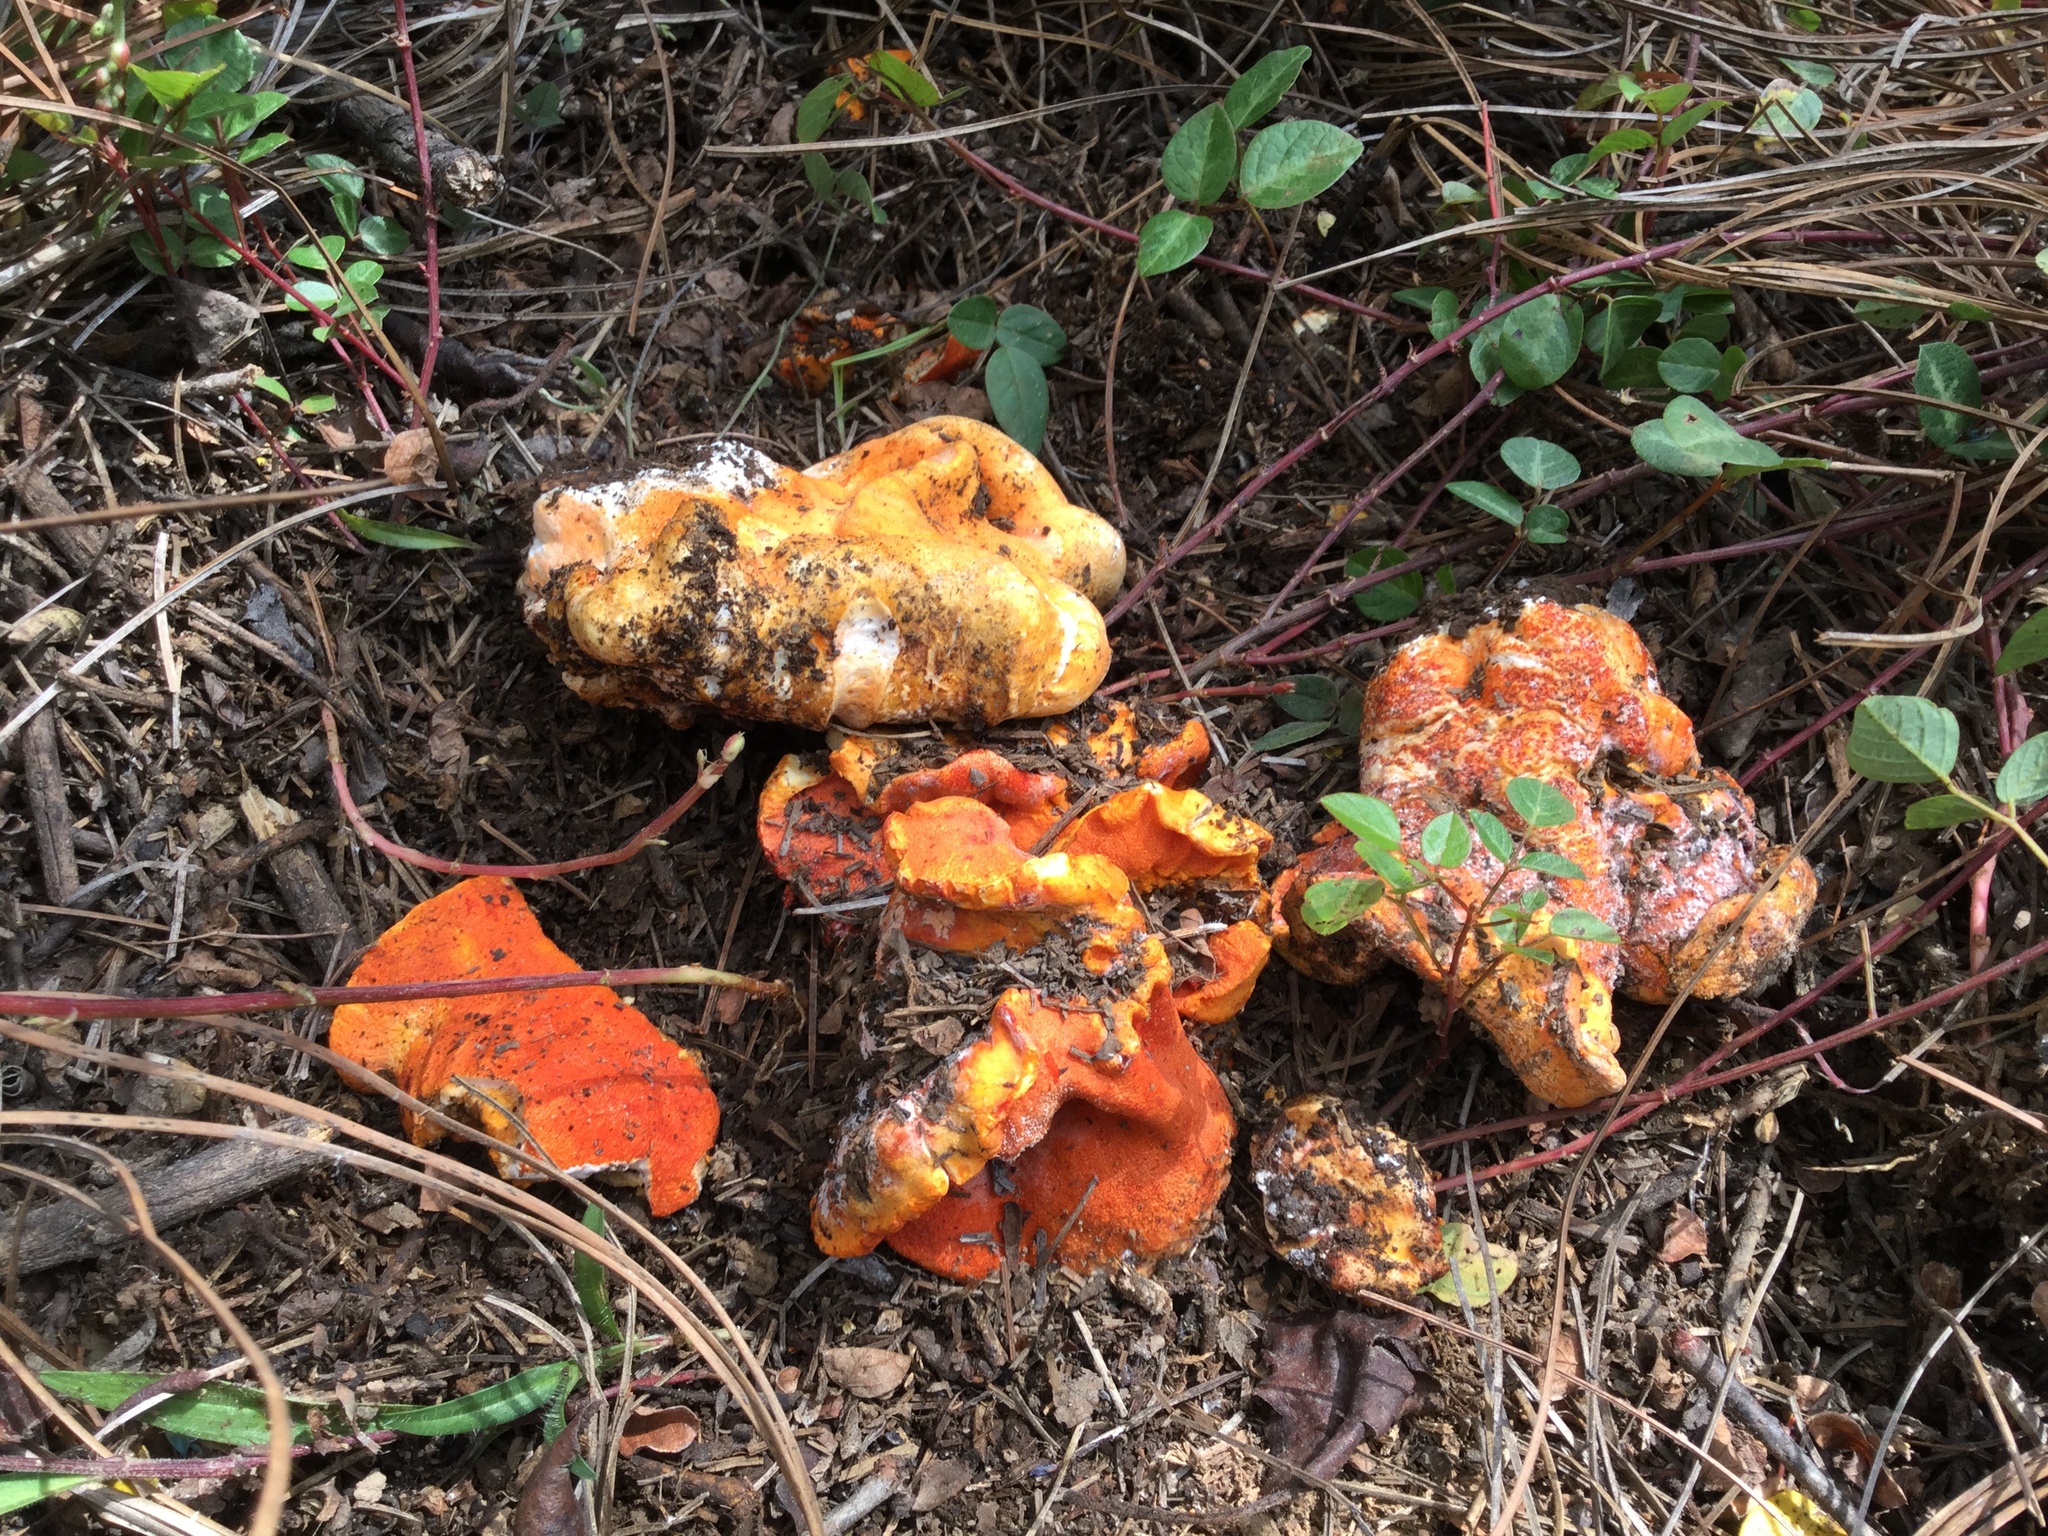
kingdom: Fungi
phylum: Ascomycota
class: Sordariomycetes
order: Hypocreales
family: Hypocreaceae
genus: Hypomyces
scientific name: Hypomyces lactifluorum
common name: Lobster mushroom
